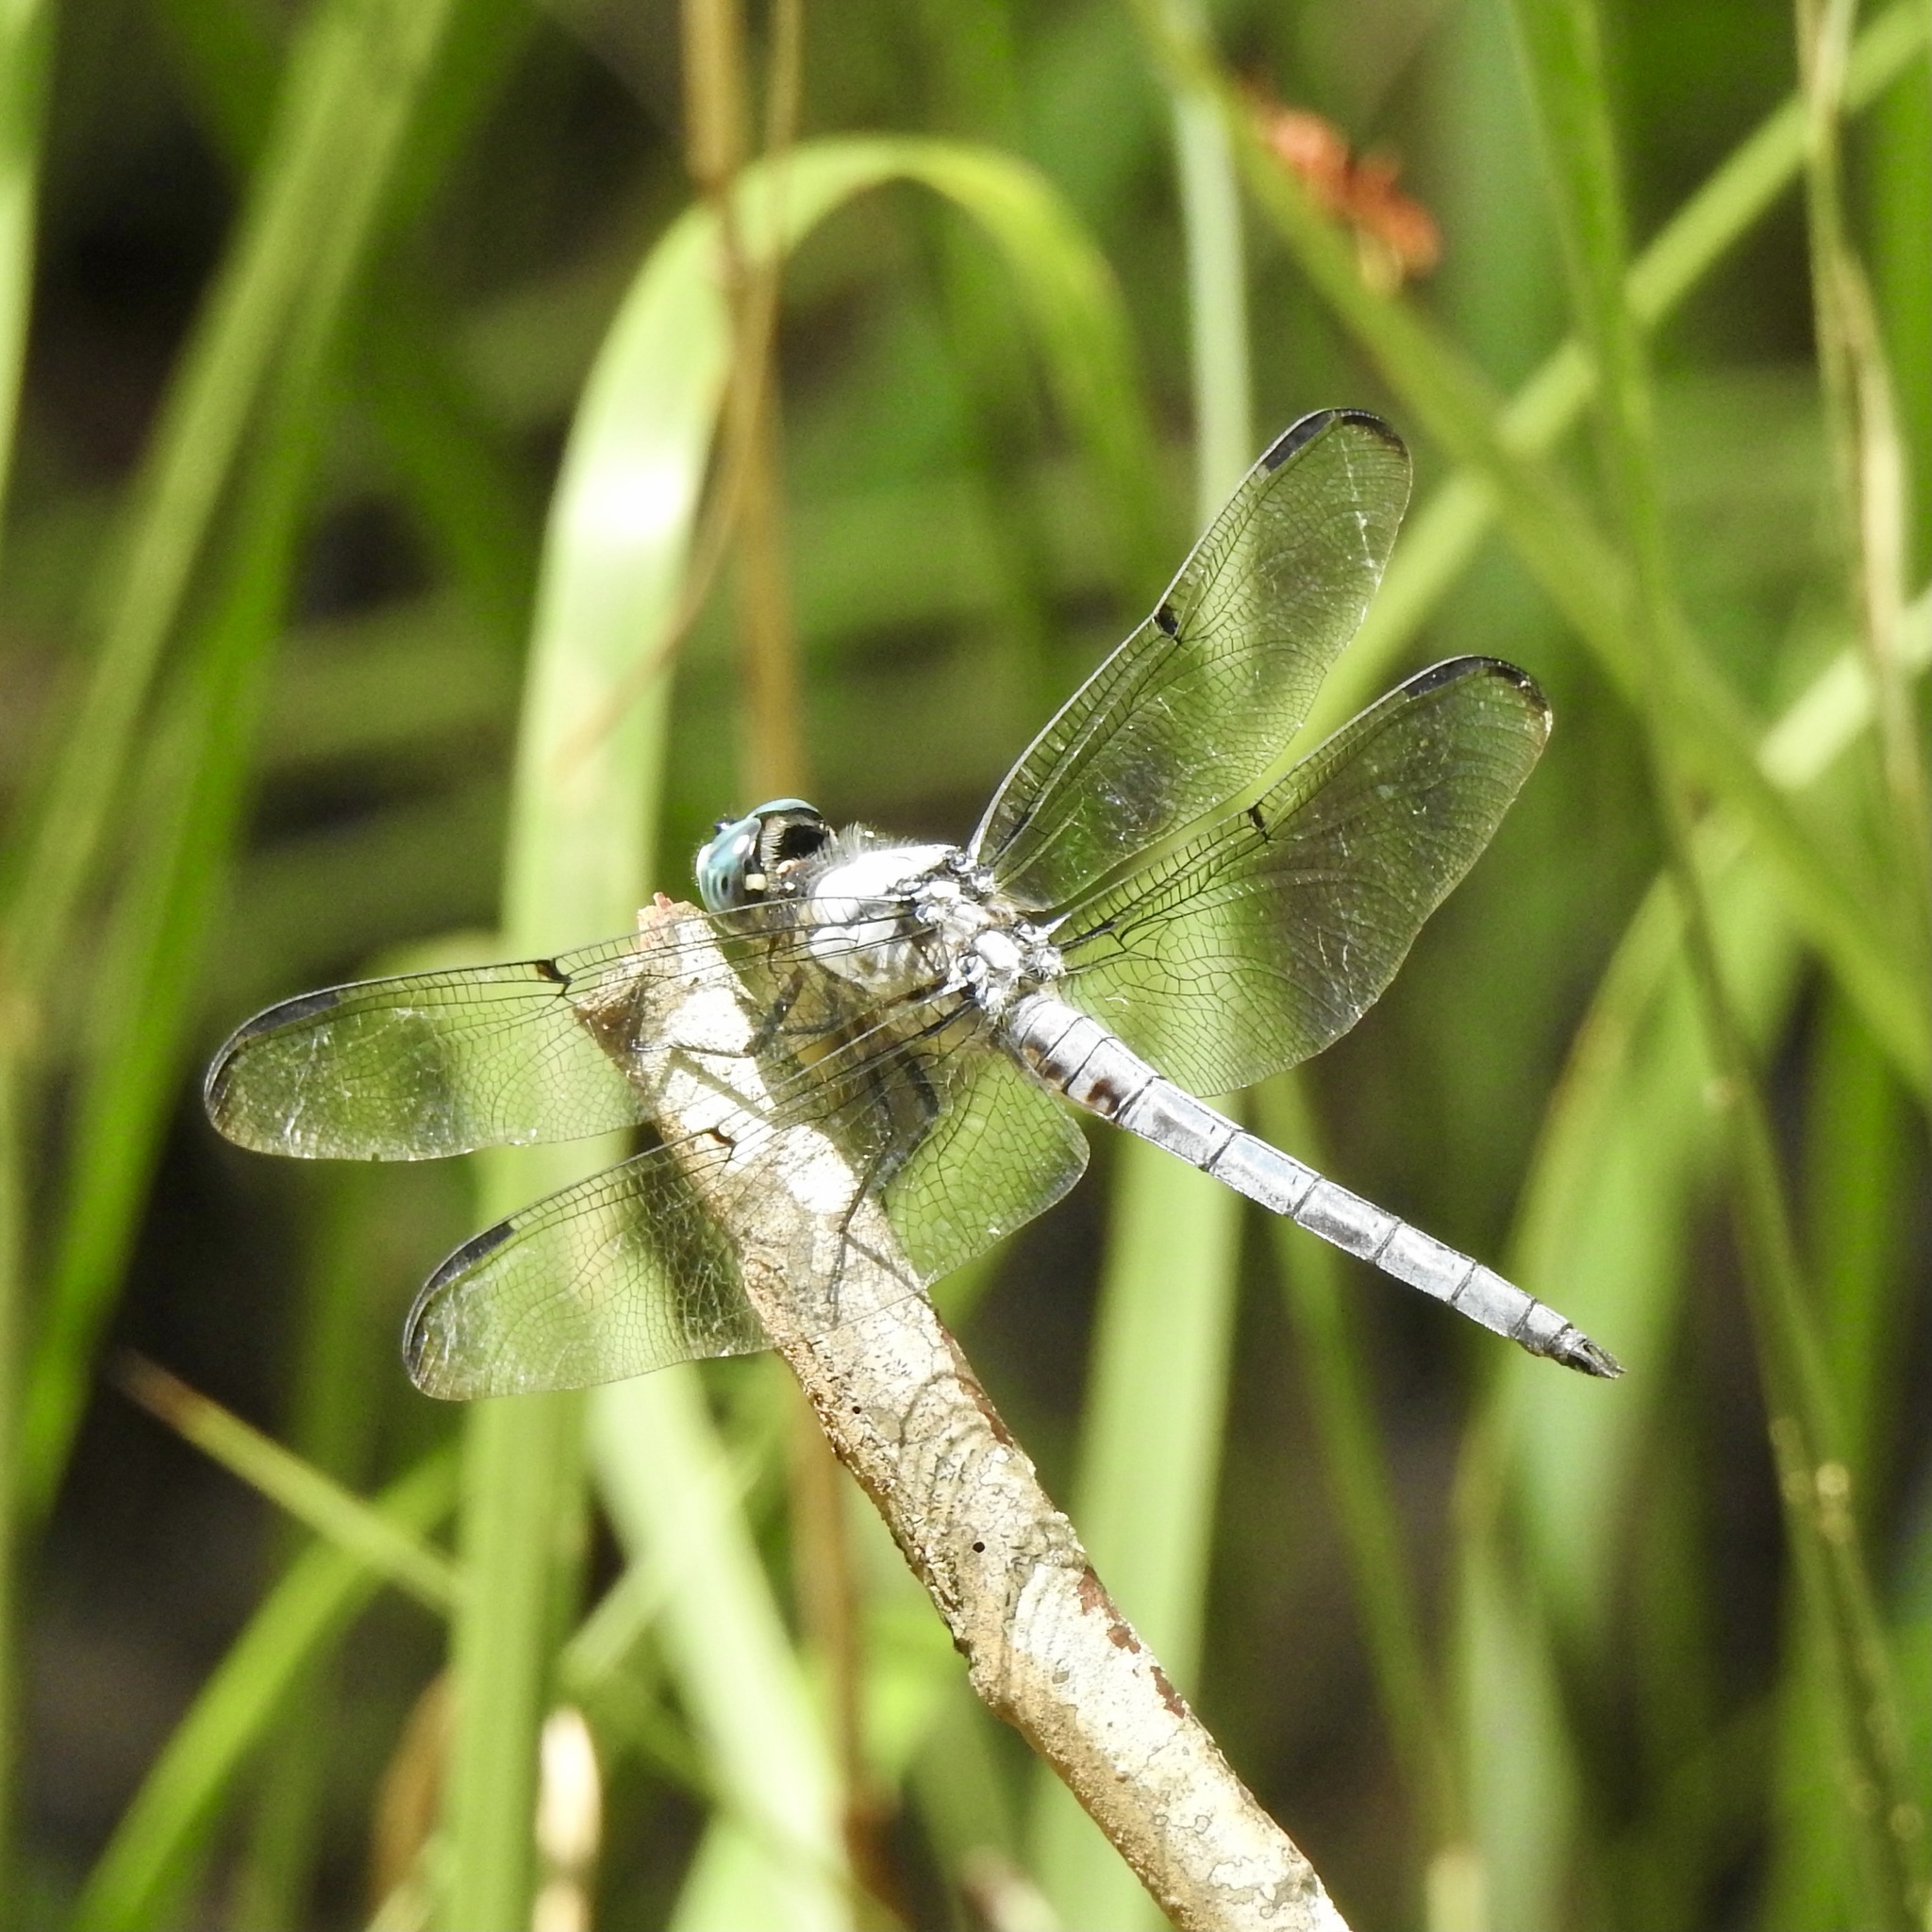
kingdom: Animalia
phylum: Arthropoda
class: Insecta
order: Odonata
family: Libellulidae
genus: Libellula
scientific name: Libellula vibrans
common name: Great blue skimmer
